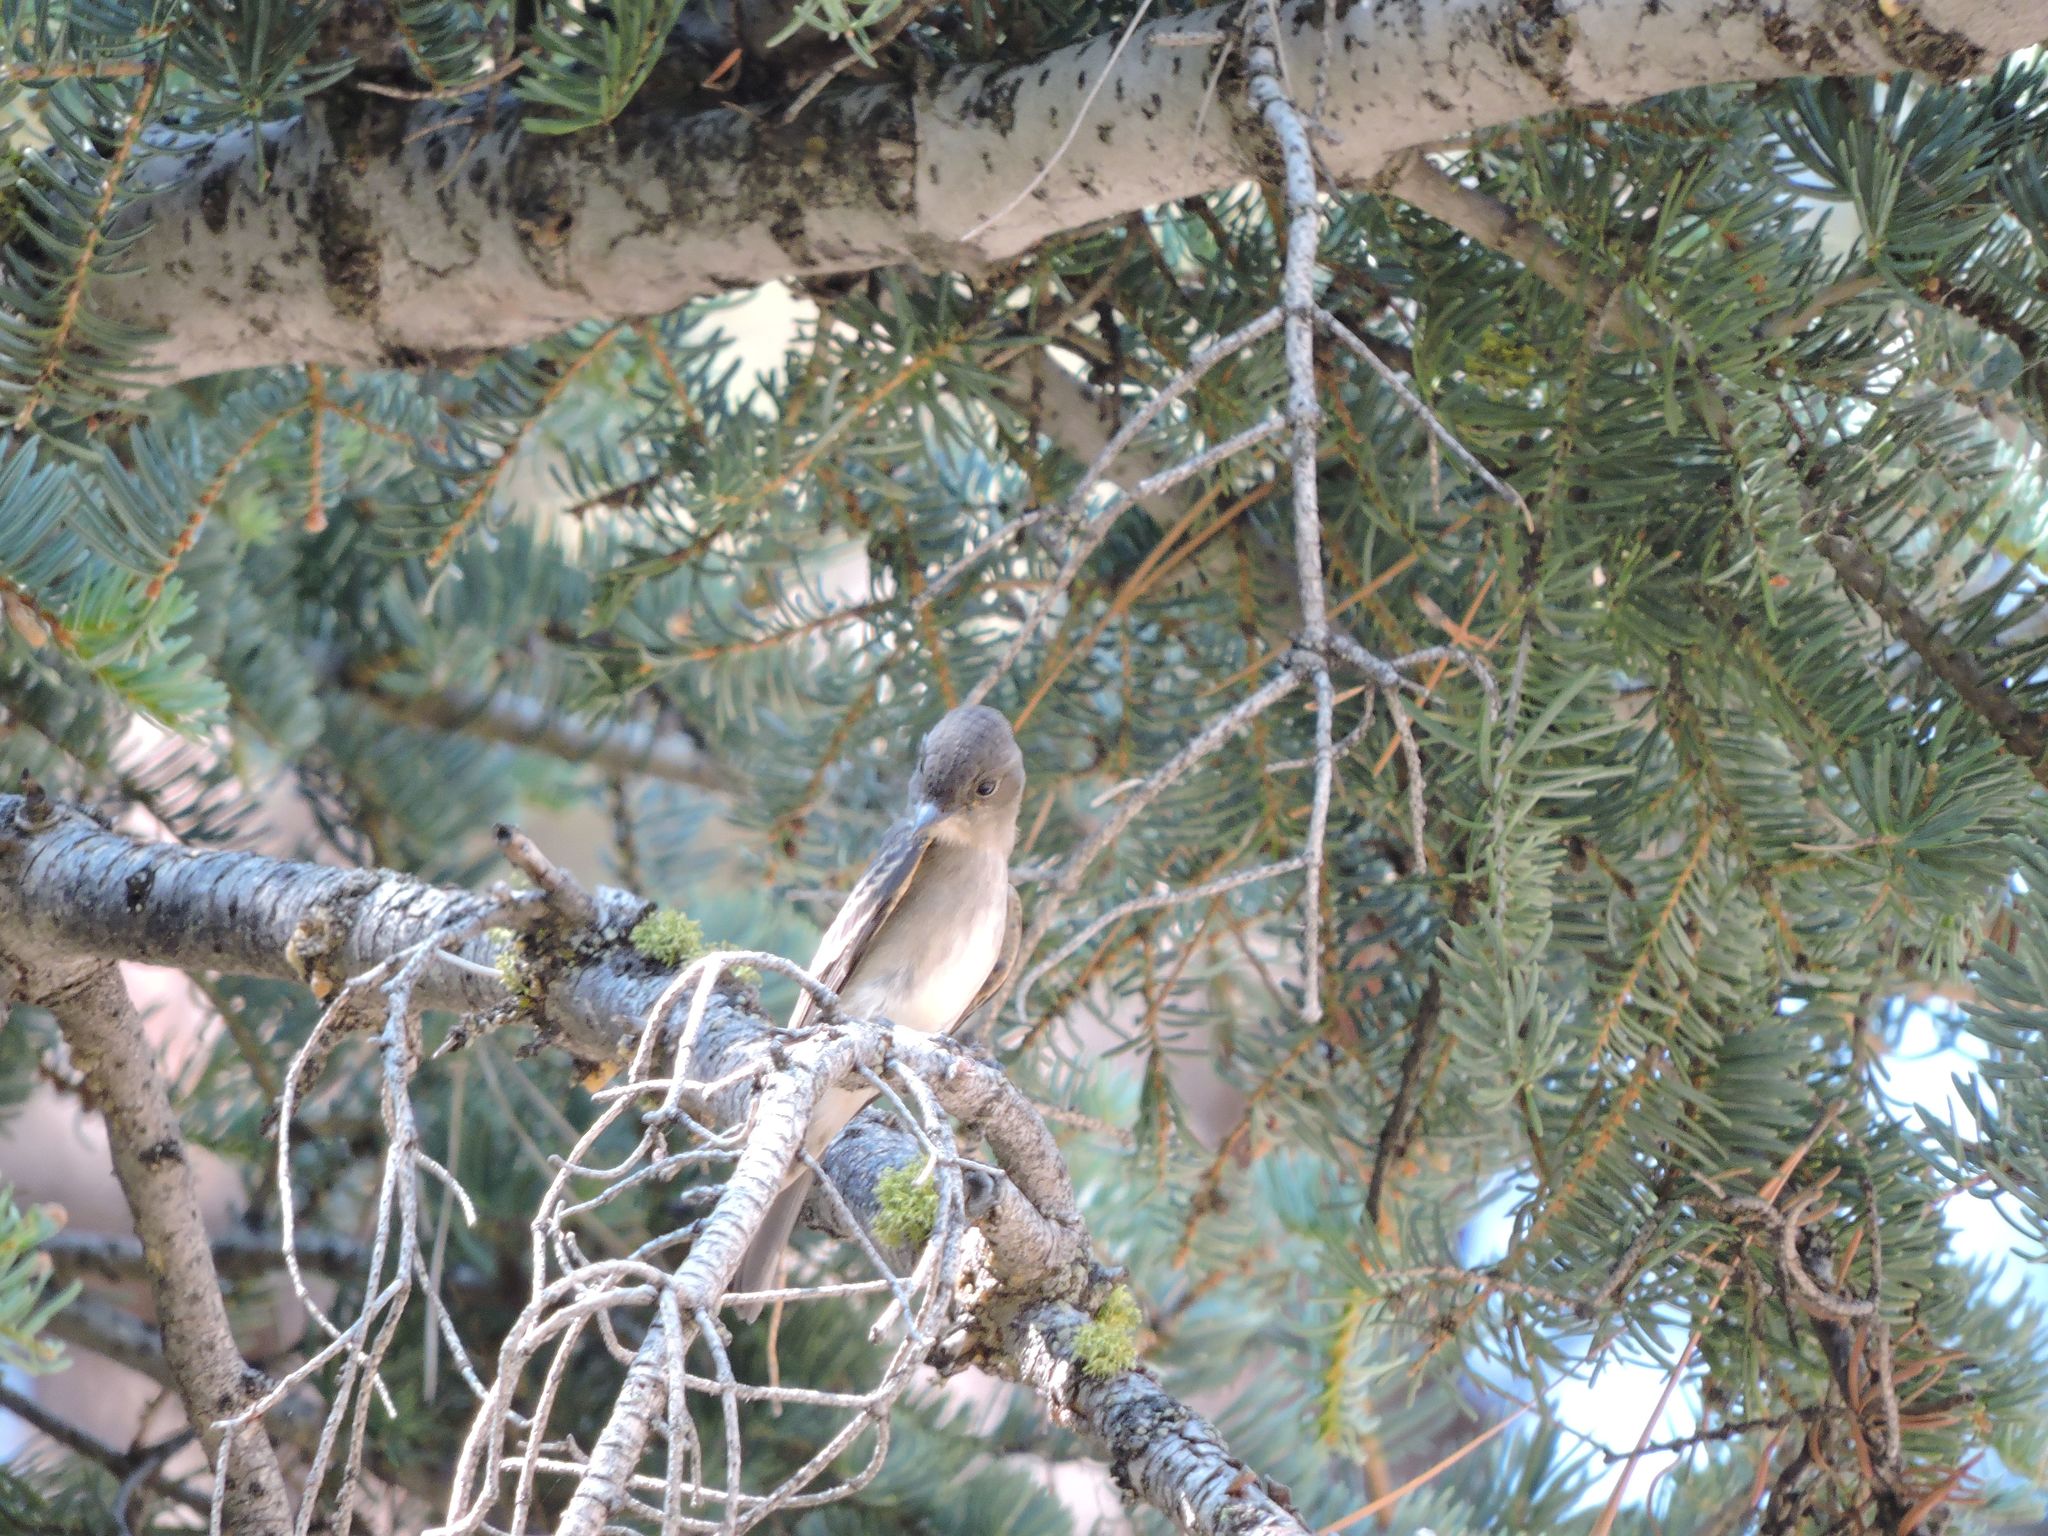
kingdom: Animalia
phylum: Chordata
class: Aves
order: Passeriformes
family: Tyrannidae
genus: Contopus
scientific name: Contopus sordidulus
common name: Western wood-pewee
